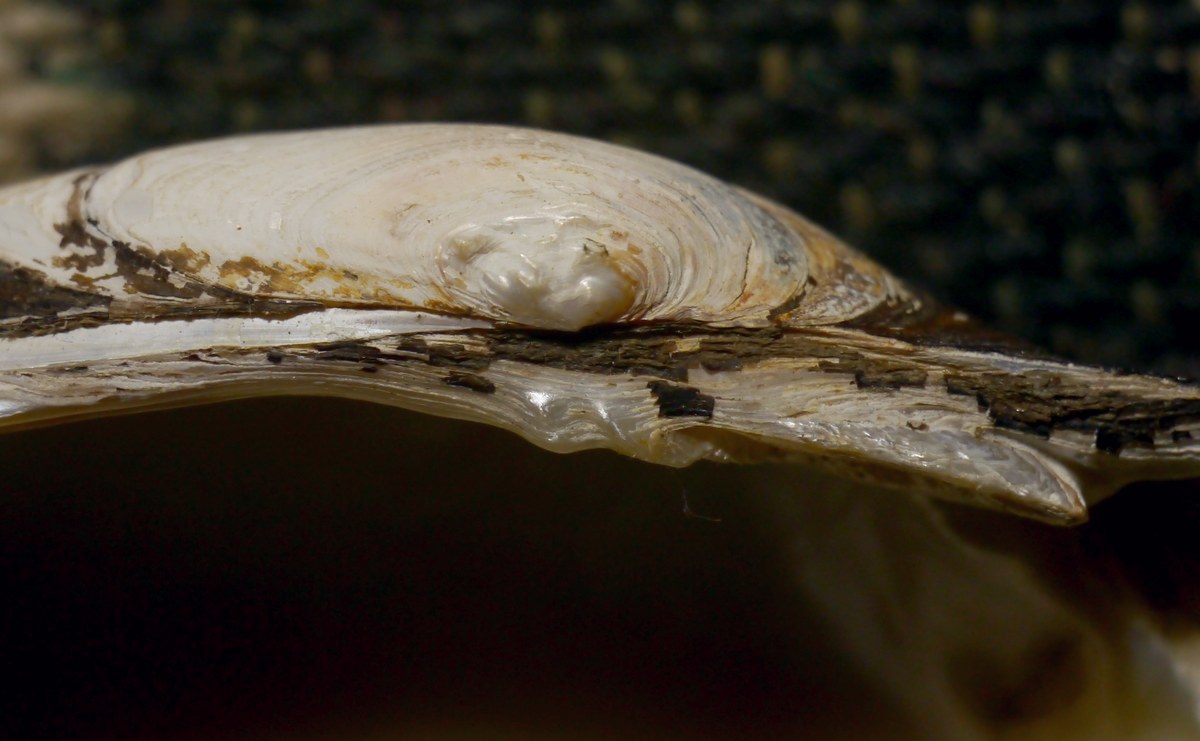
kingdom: Animalia
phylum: Mollusca
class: Bivalvia
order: Unionida
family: Unionidae
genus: Unio
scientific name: Unio tumidus
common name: Swollen river mussel
